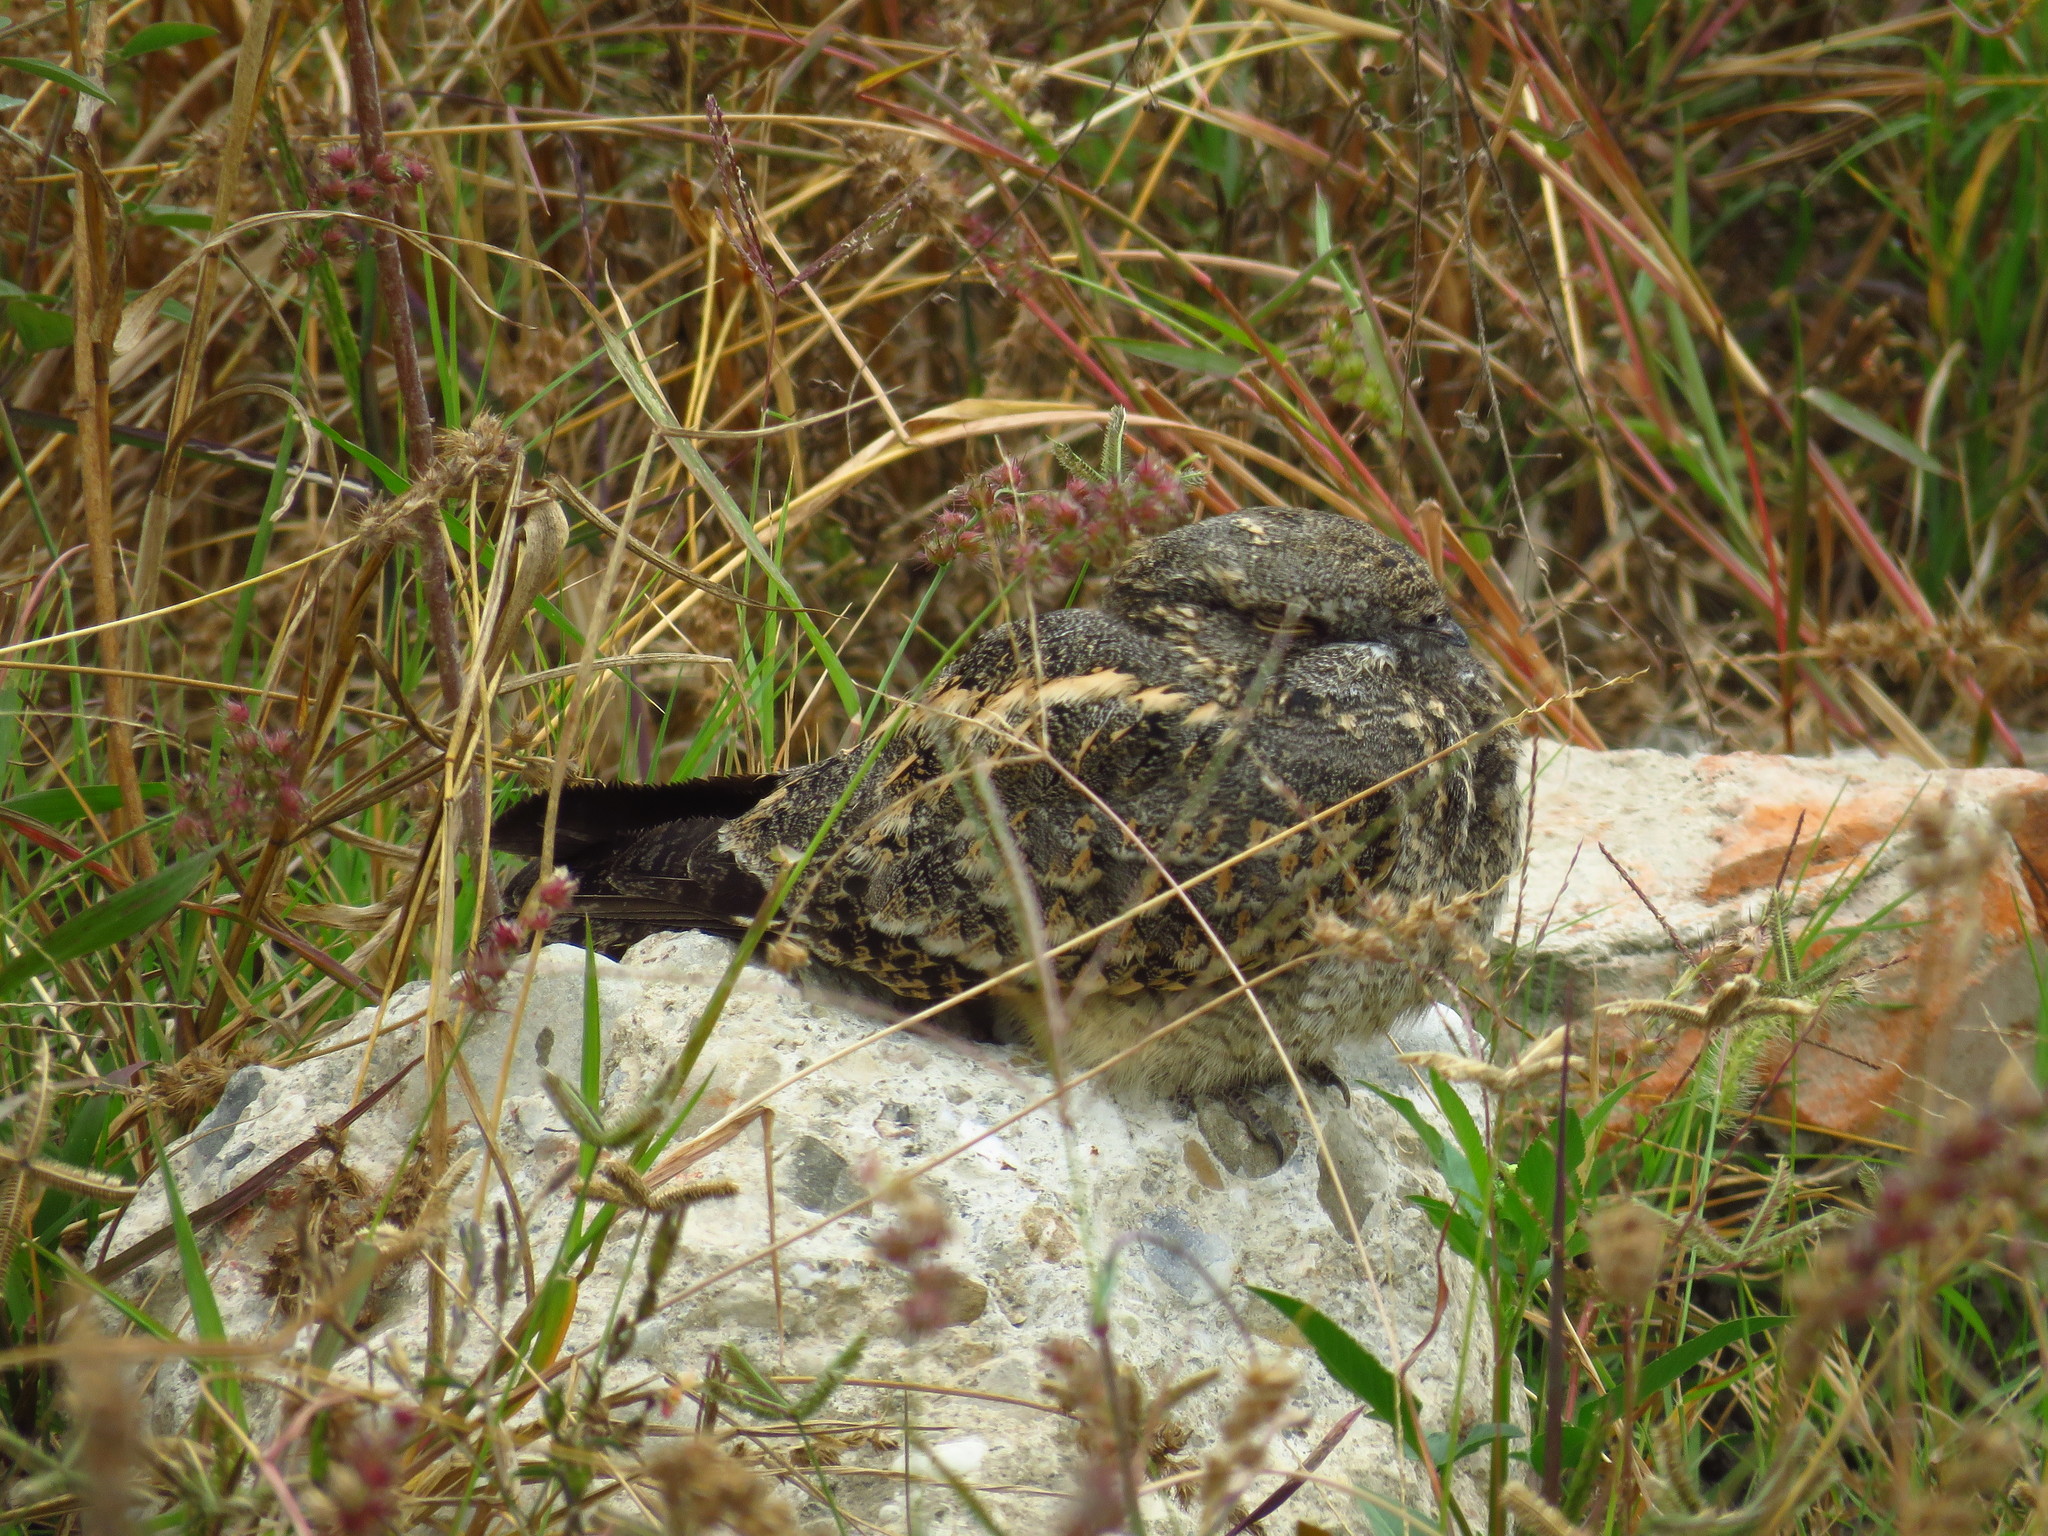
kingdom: Animalia
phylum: Chordata
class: Aves
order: Caprimulgiformes
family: Caprimulgidae
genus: Caprimulgus
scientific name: Caprimulgus affinis
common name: Savanna nightjar
